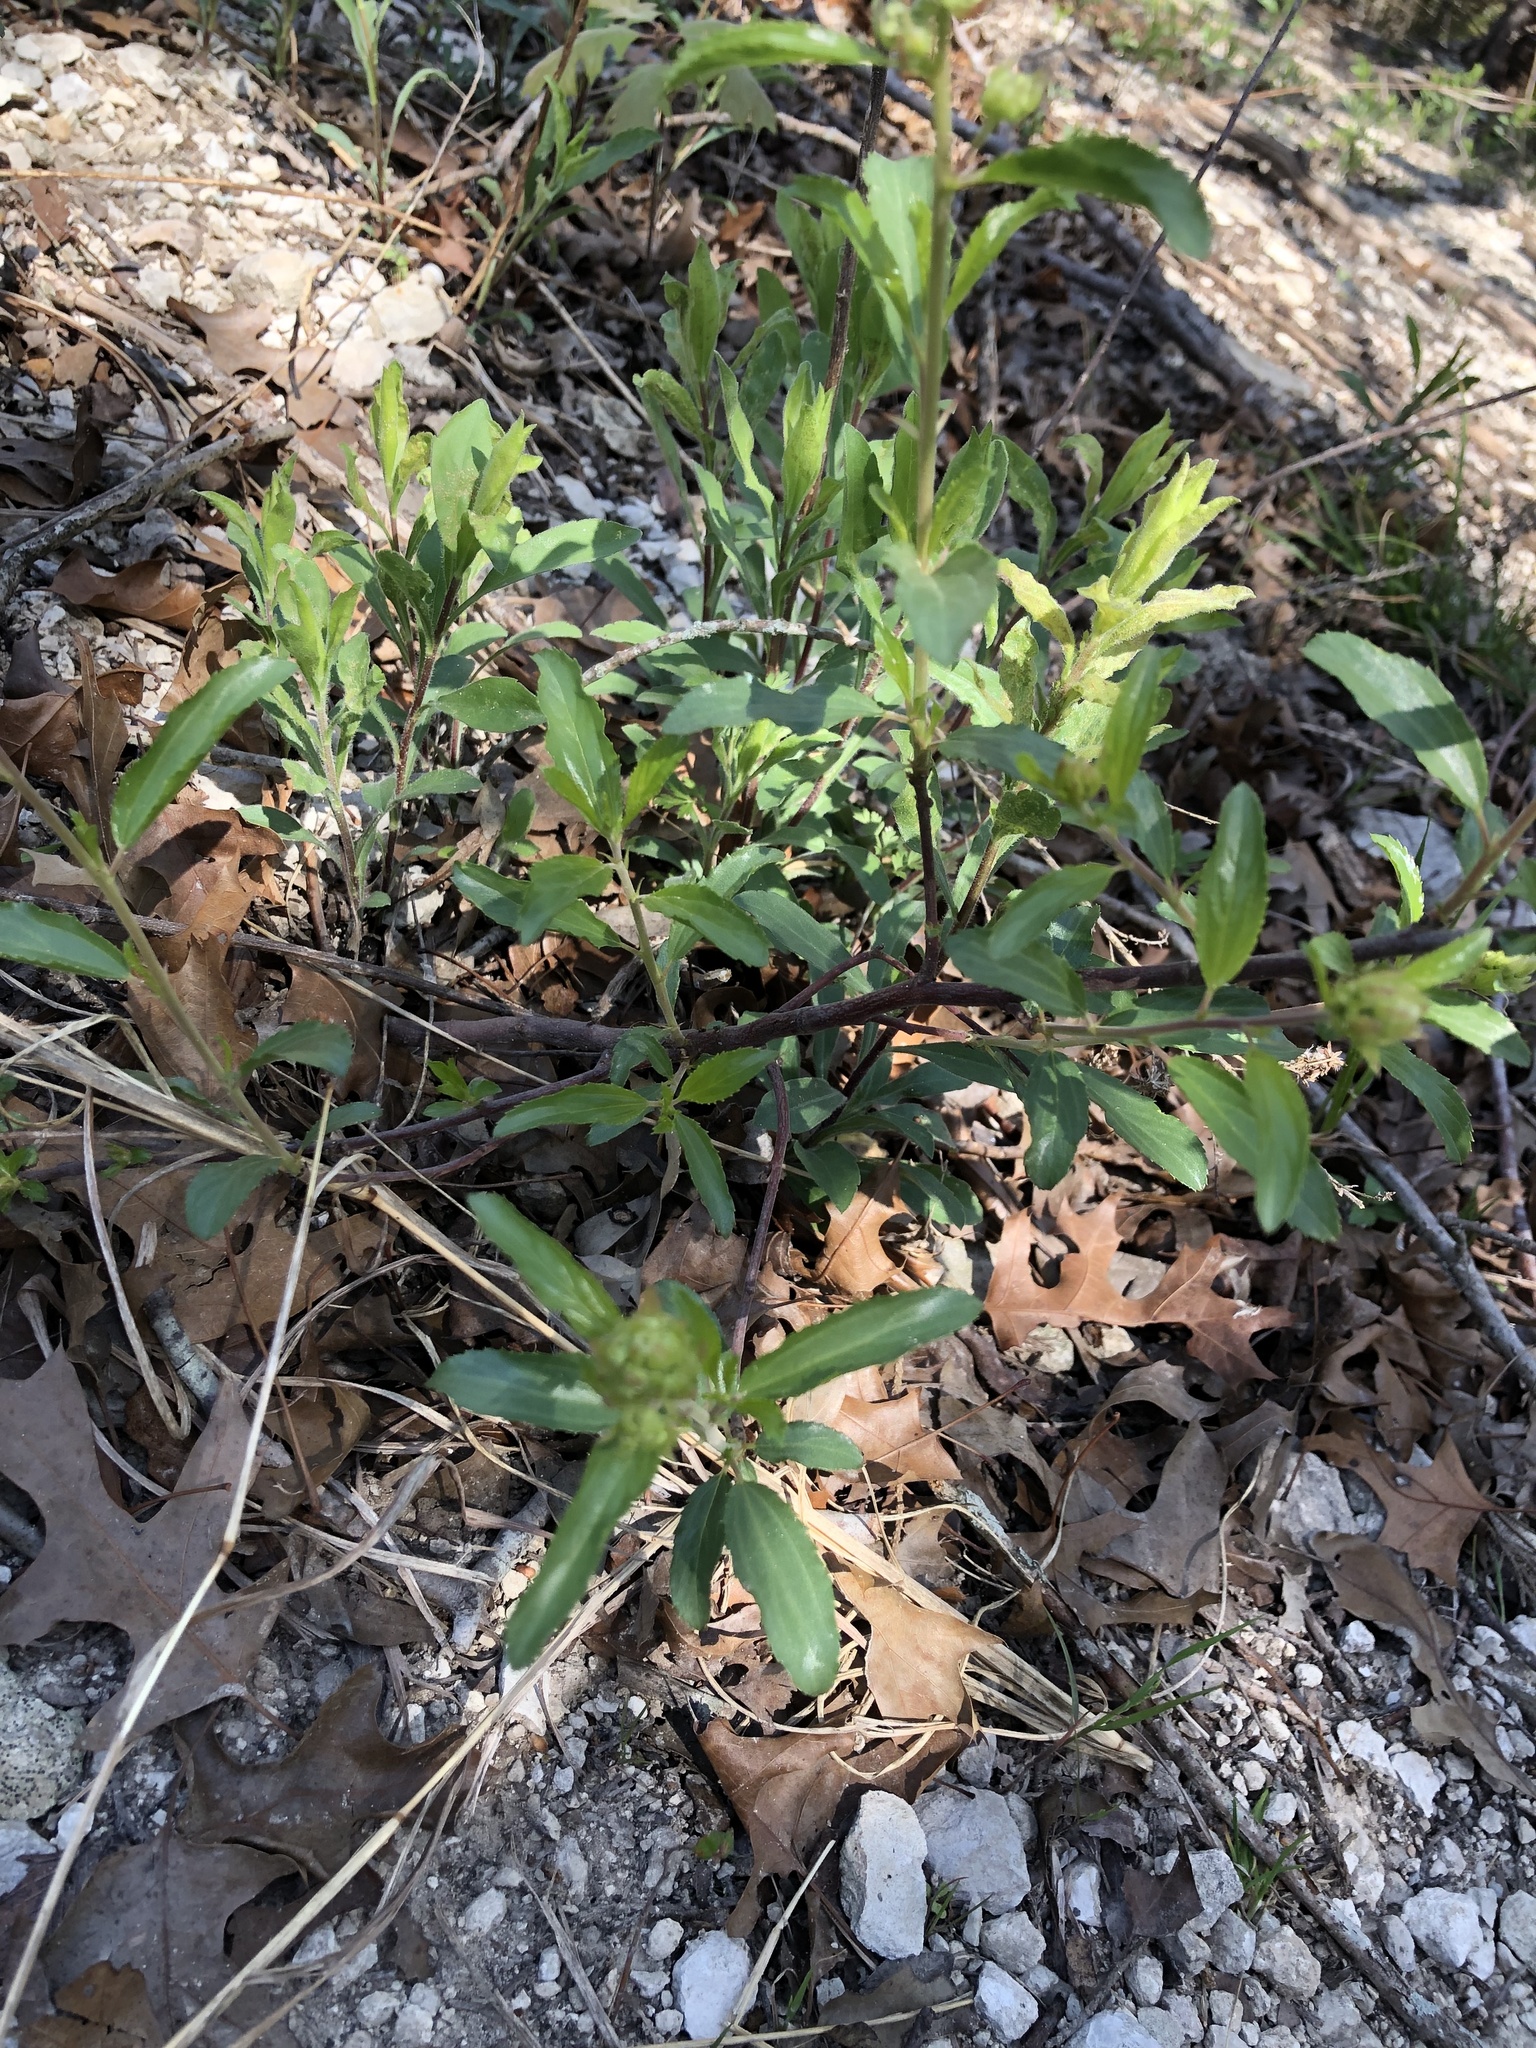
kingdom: Plantae
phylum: Tracheophyta
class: Magnoliopsida
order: Rosales
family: Rhamnaceae
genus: Ceanothus
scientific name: Ceanothus herbaceus
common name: Inland ceanothus
